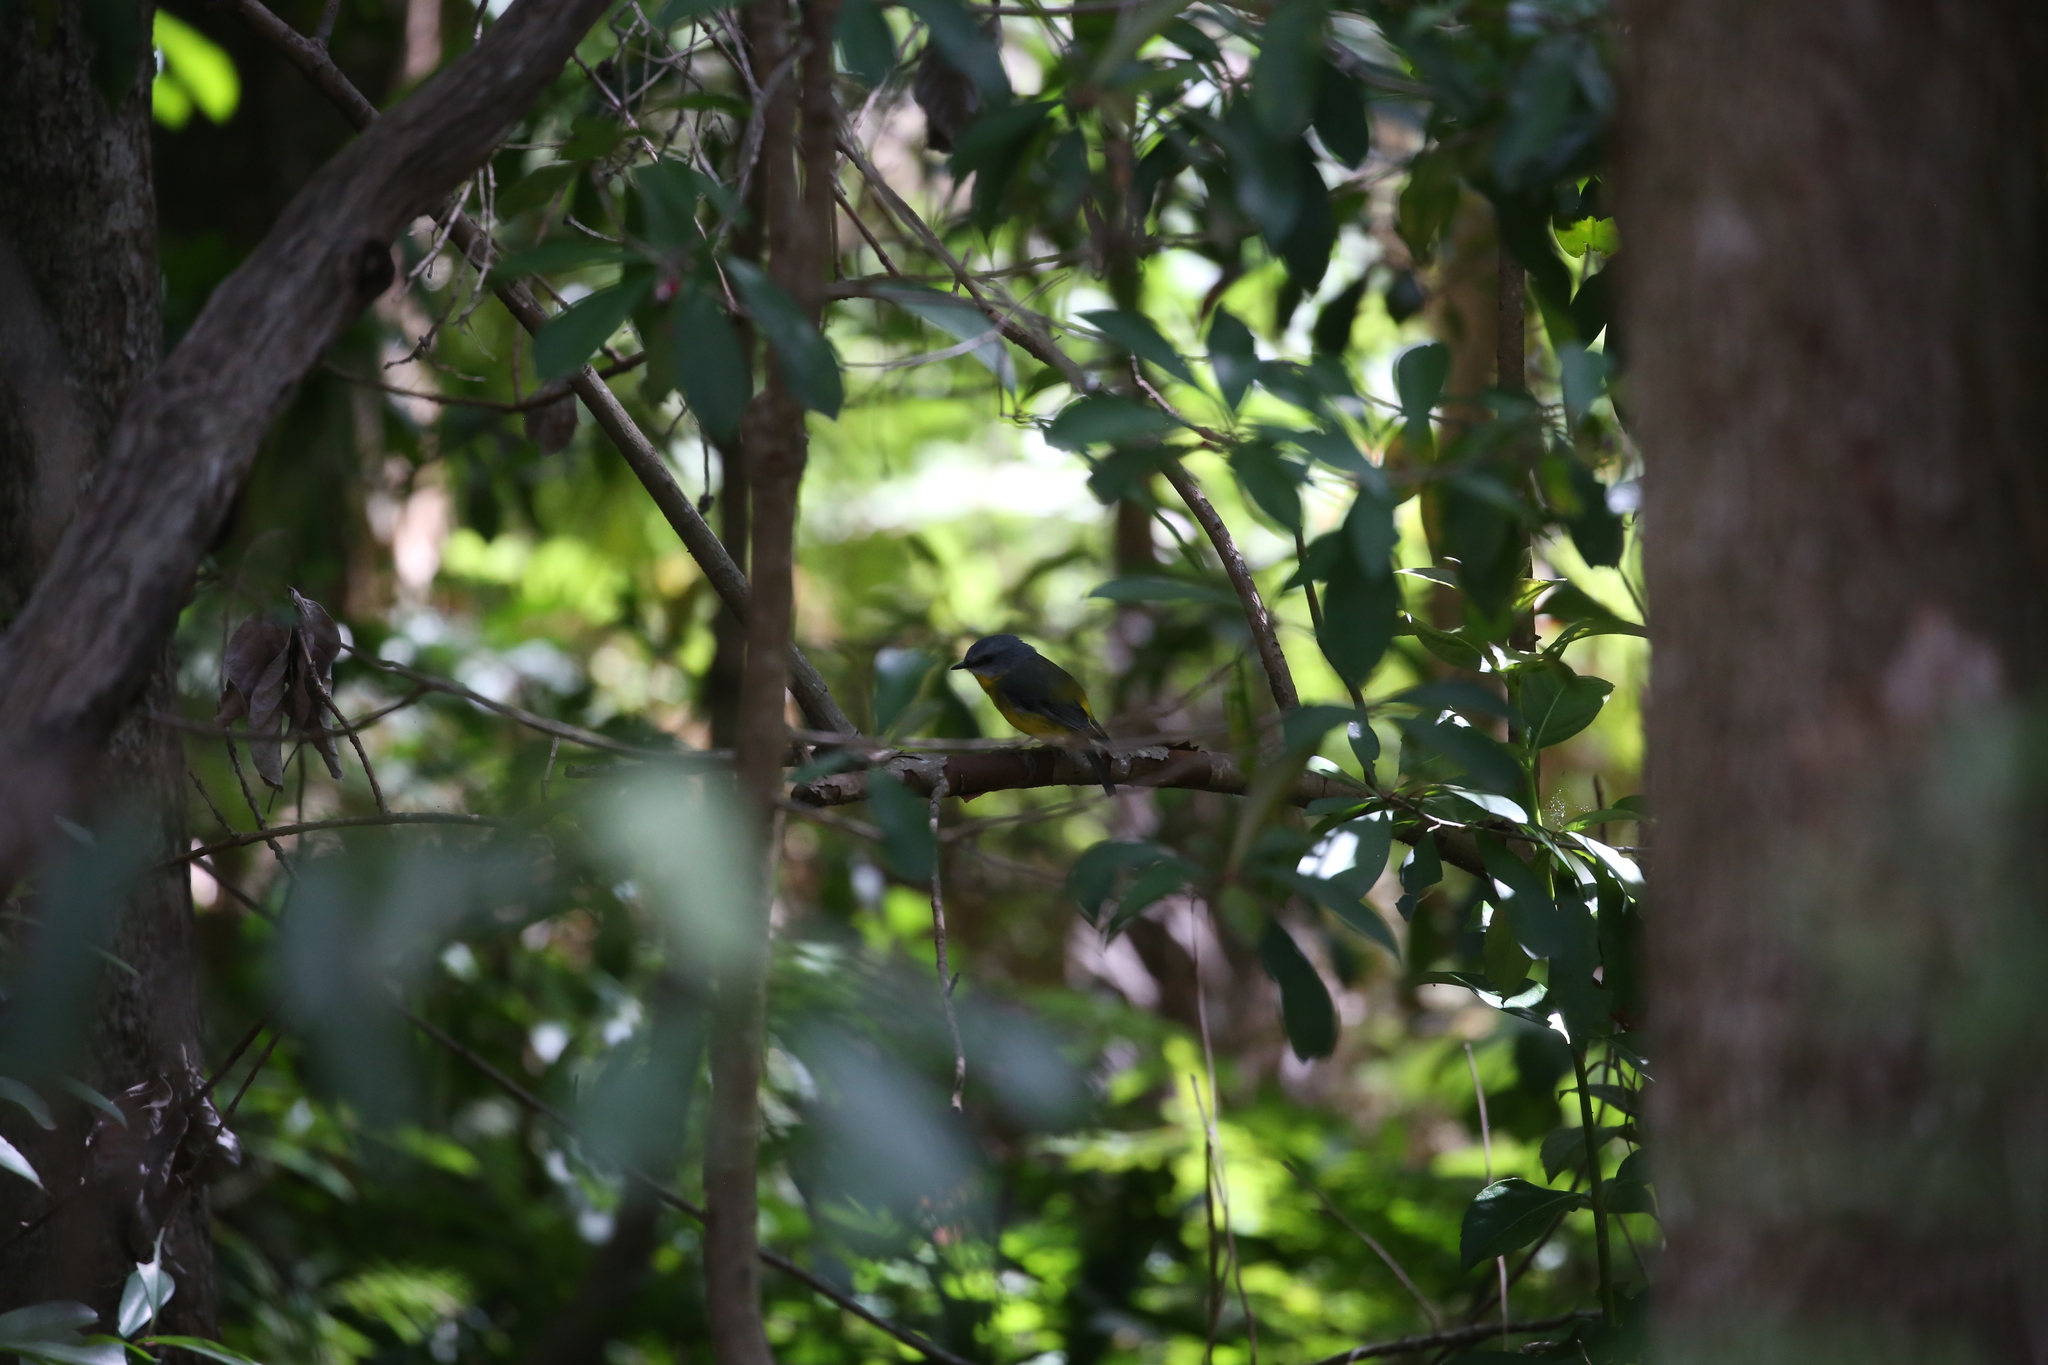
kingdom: Animalia
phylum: Chordata
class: Aves
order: Passeriformes
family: Petroicidae
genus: Eopsaltria
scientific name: Eopsaltria australis
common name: Eastern yellow robin
